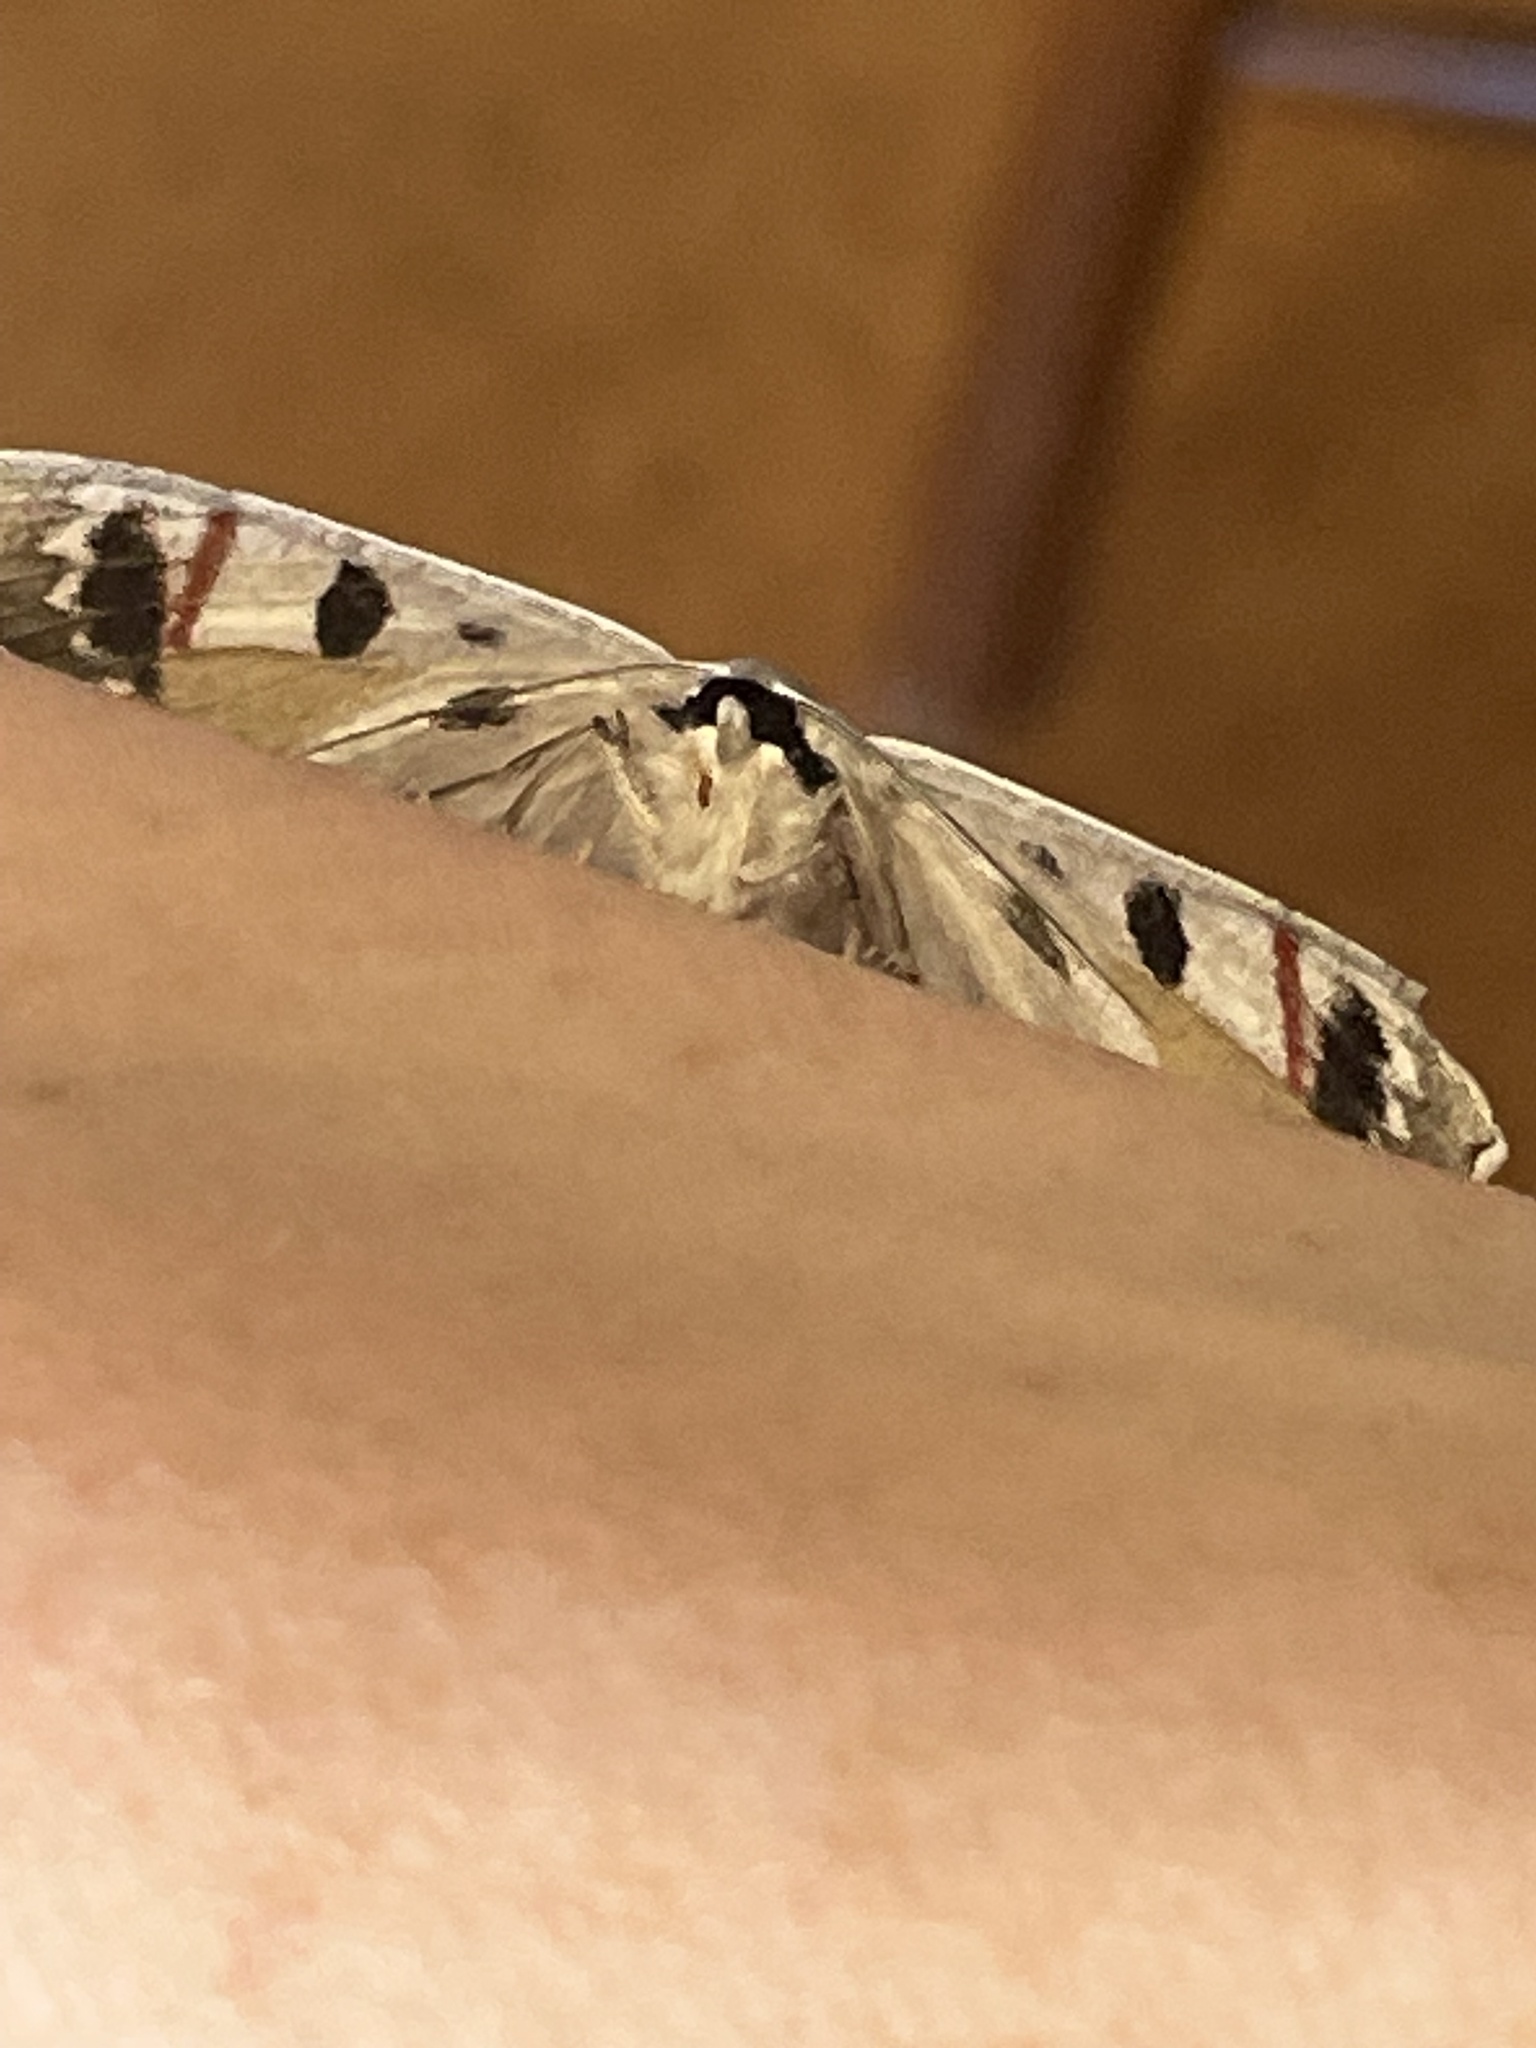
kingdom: Animalia
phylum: Arthropoda
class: Insecta
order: Lepidoptera
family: Geometridae
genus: Crypsiphona
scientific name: Crypsiphona ocultaria
